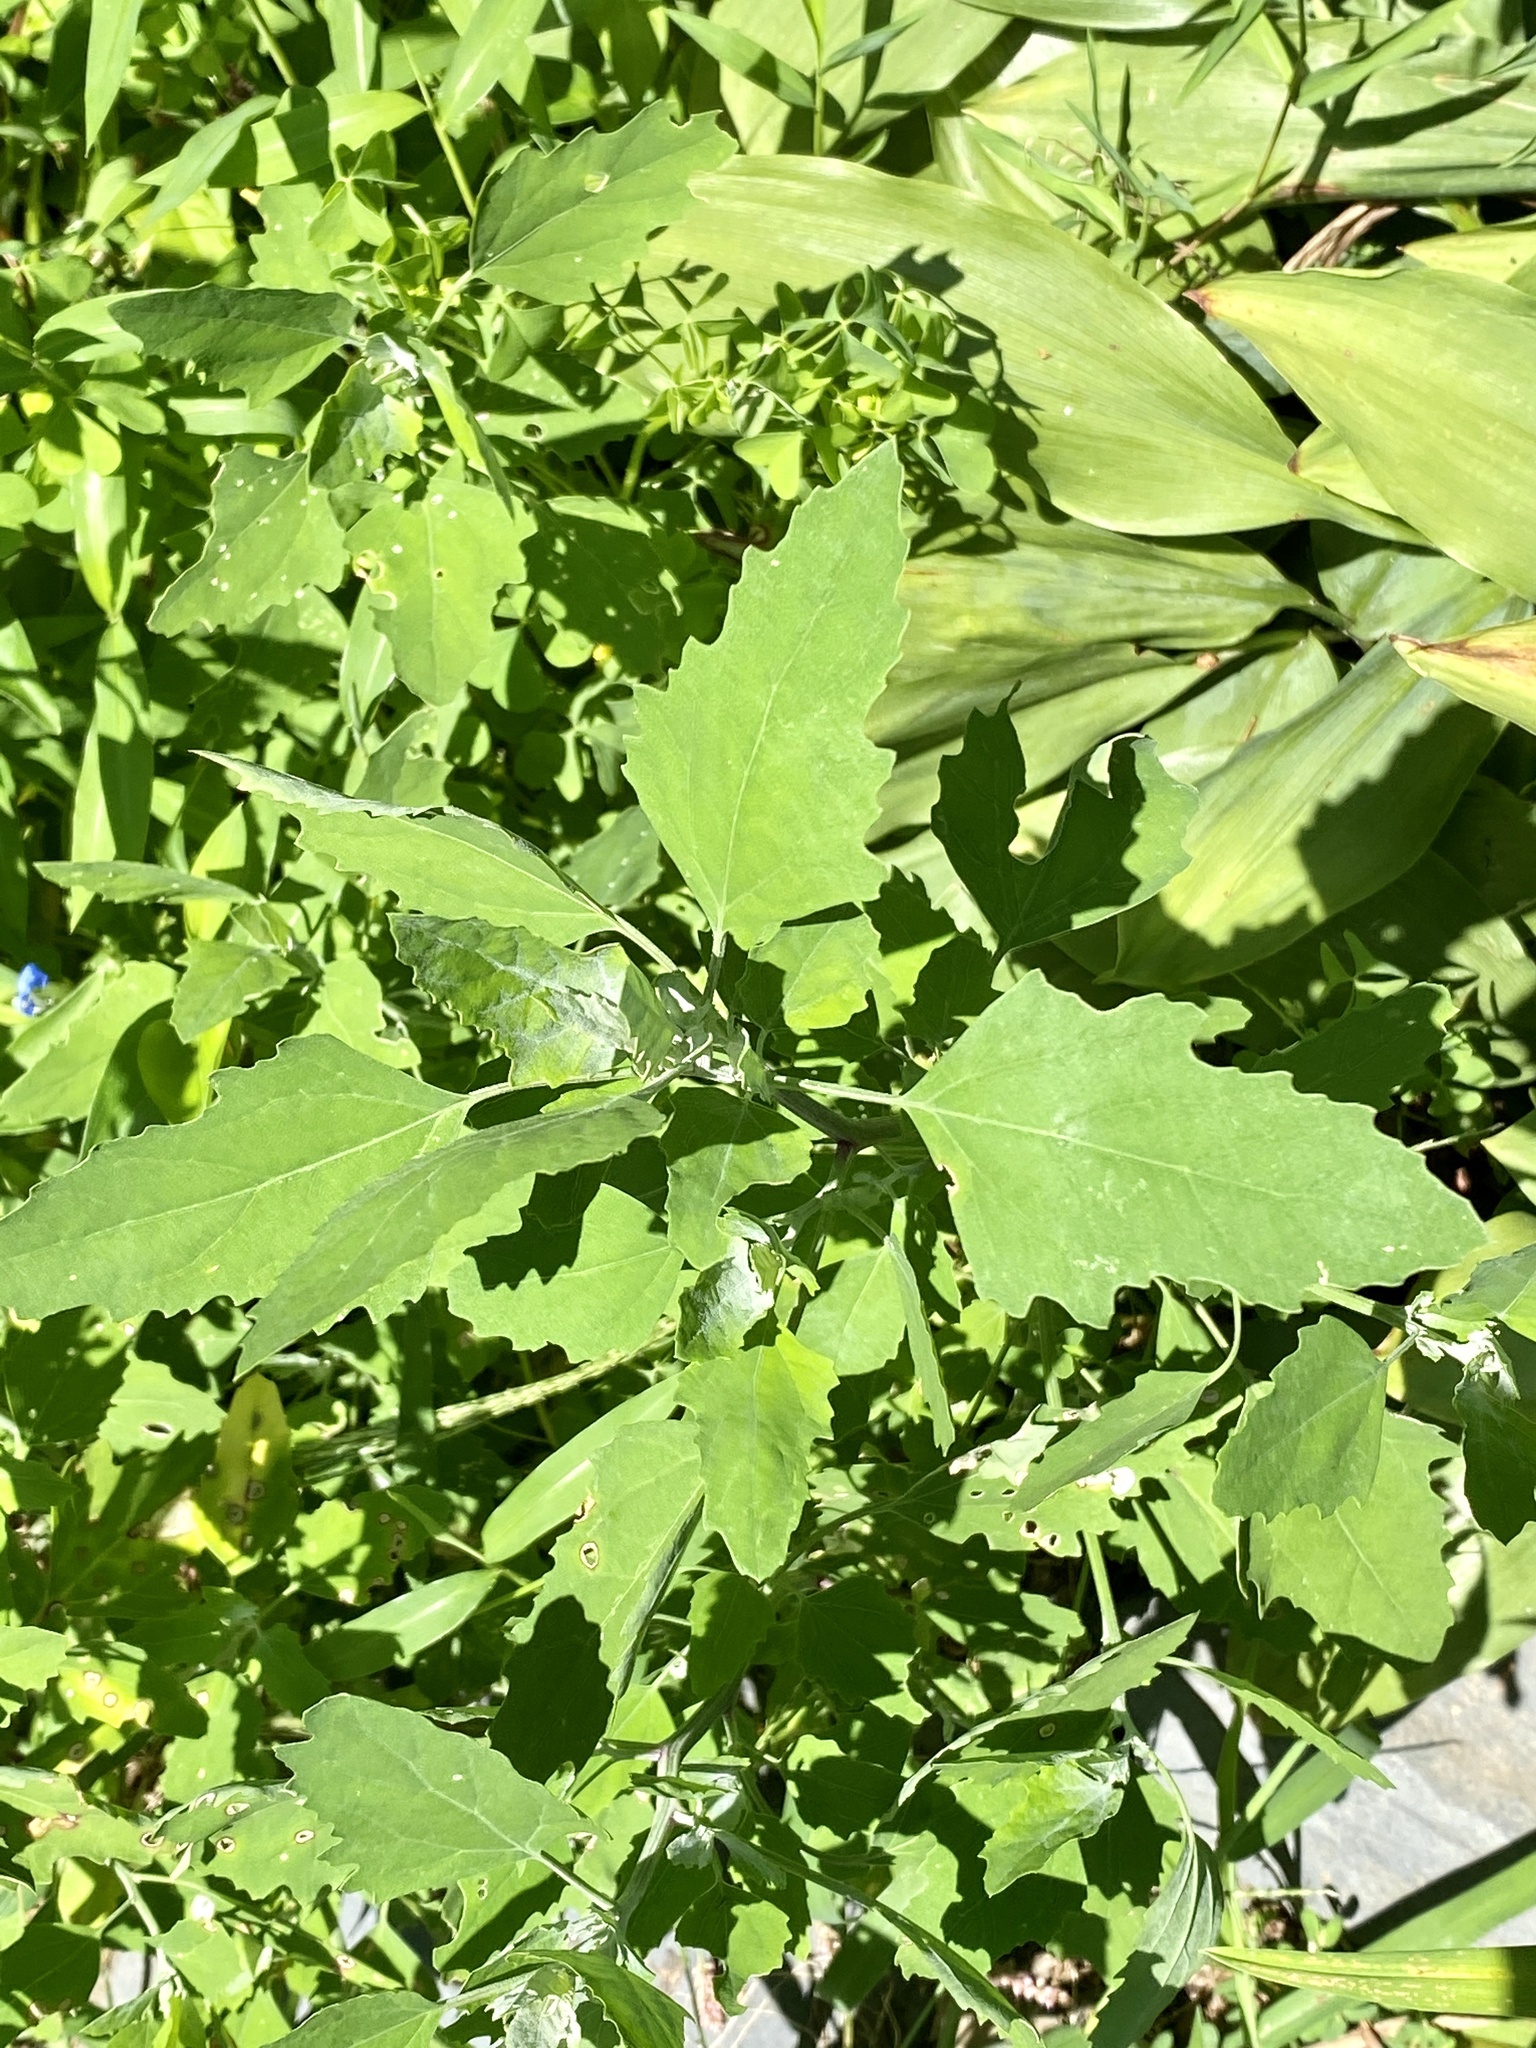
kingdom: Plantae
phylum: Tracheophyta
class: Magnoliopsida
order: Caryophyllales
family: Amaranthaceae
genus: Chenopodium
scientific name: Chenopodium album
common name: Fat-hen
